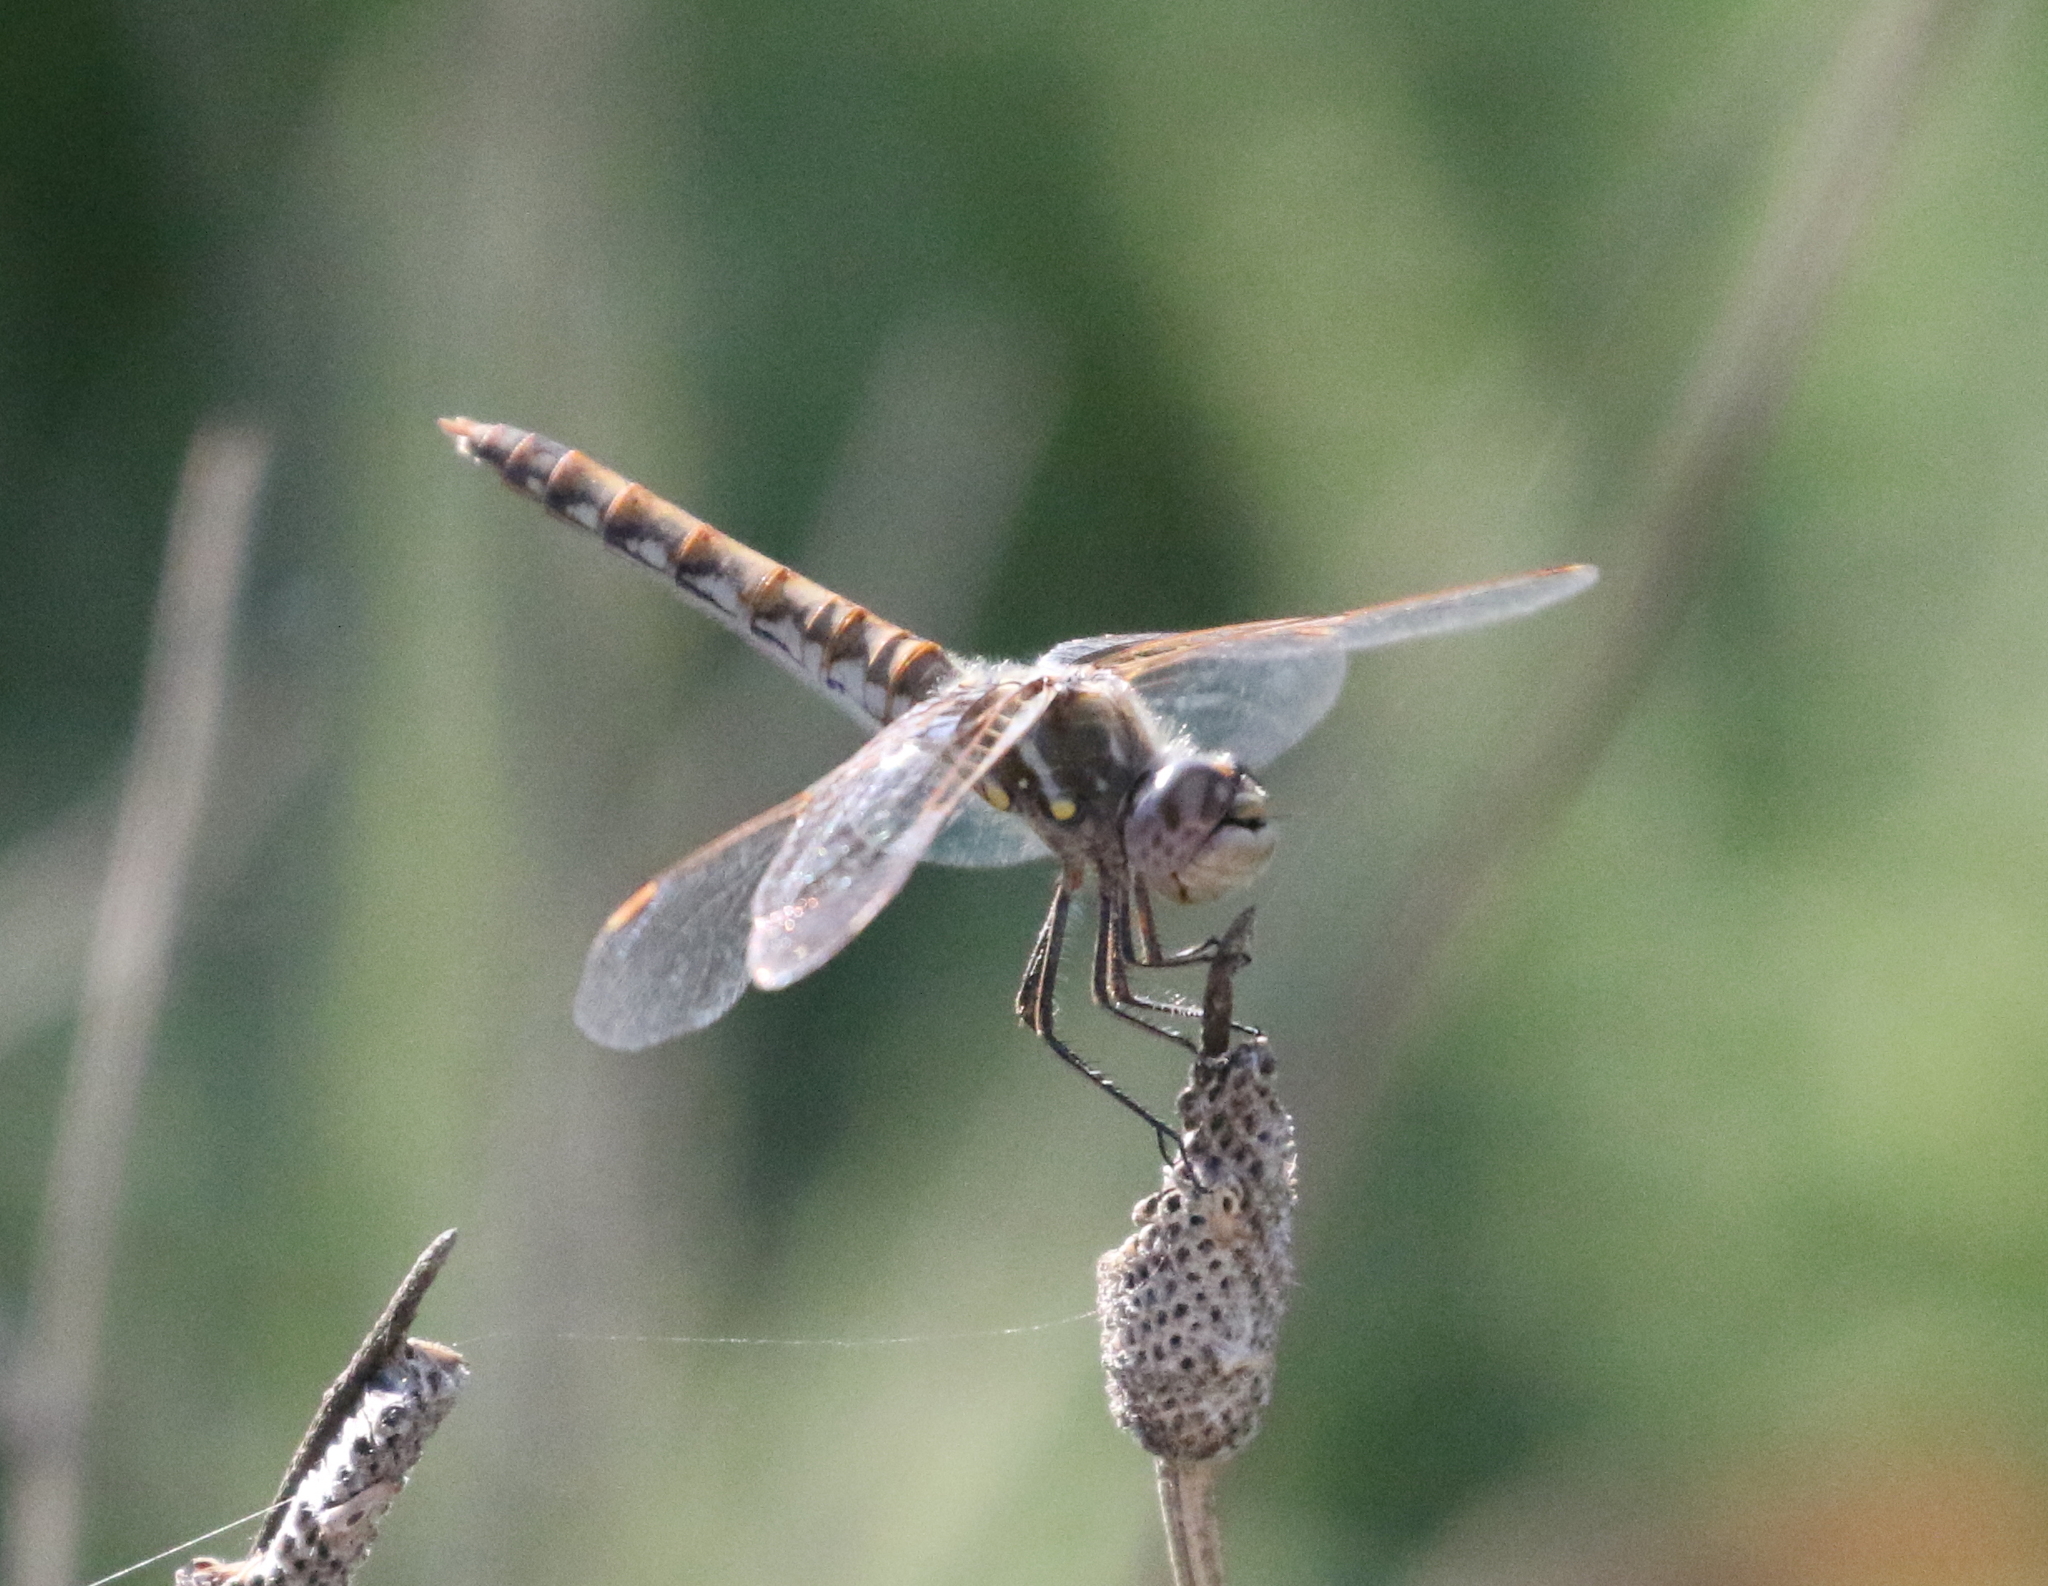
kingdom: Animalia
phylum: Arthropoda
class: Insecta
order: Odonata
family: Libellulidae
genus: Sympetrum
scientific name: Sympetrum corruptum
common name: Variegated meadowhawk
